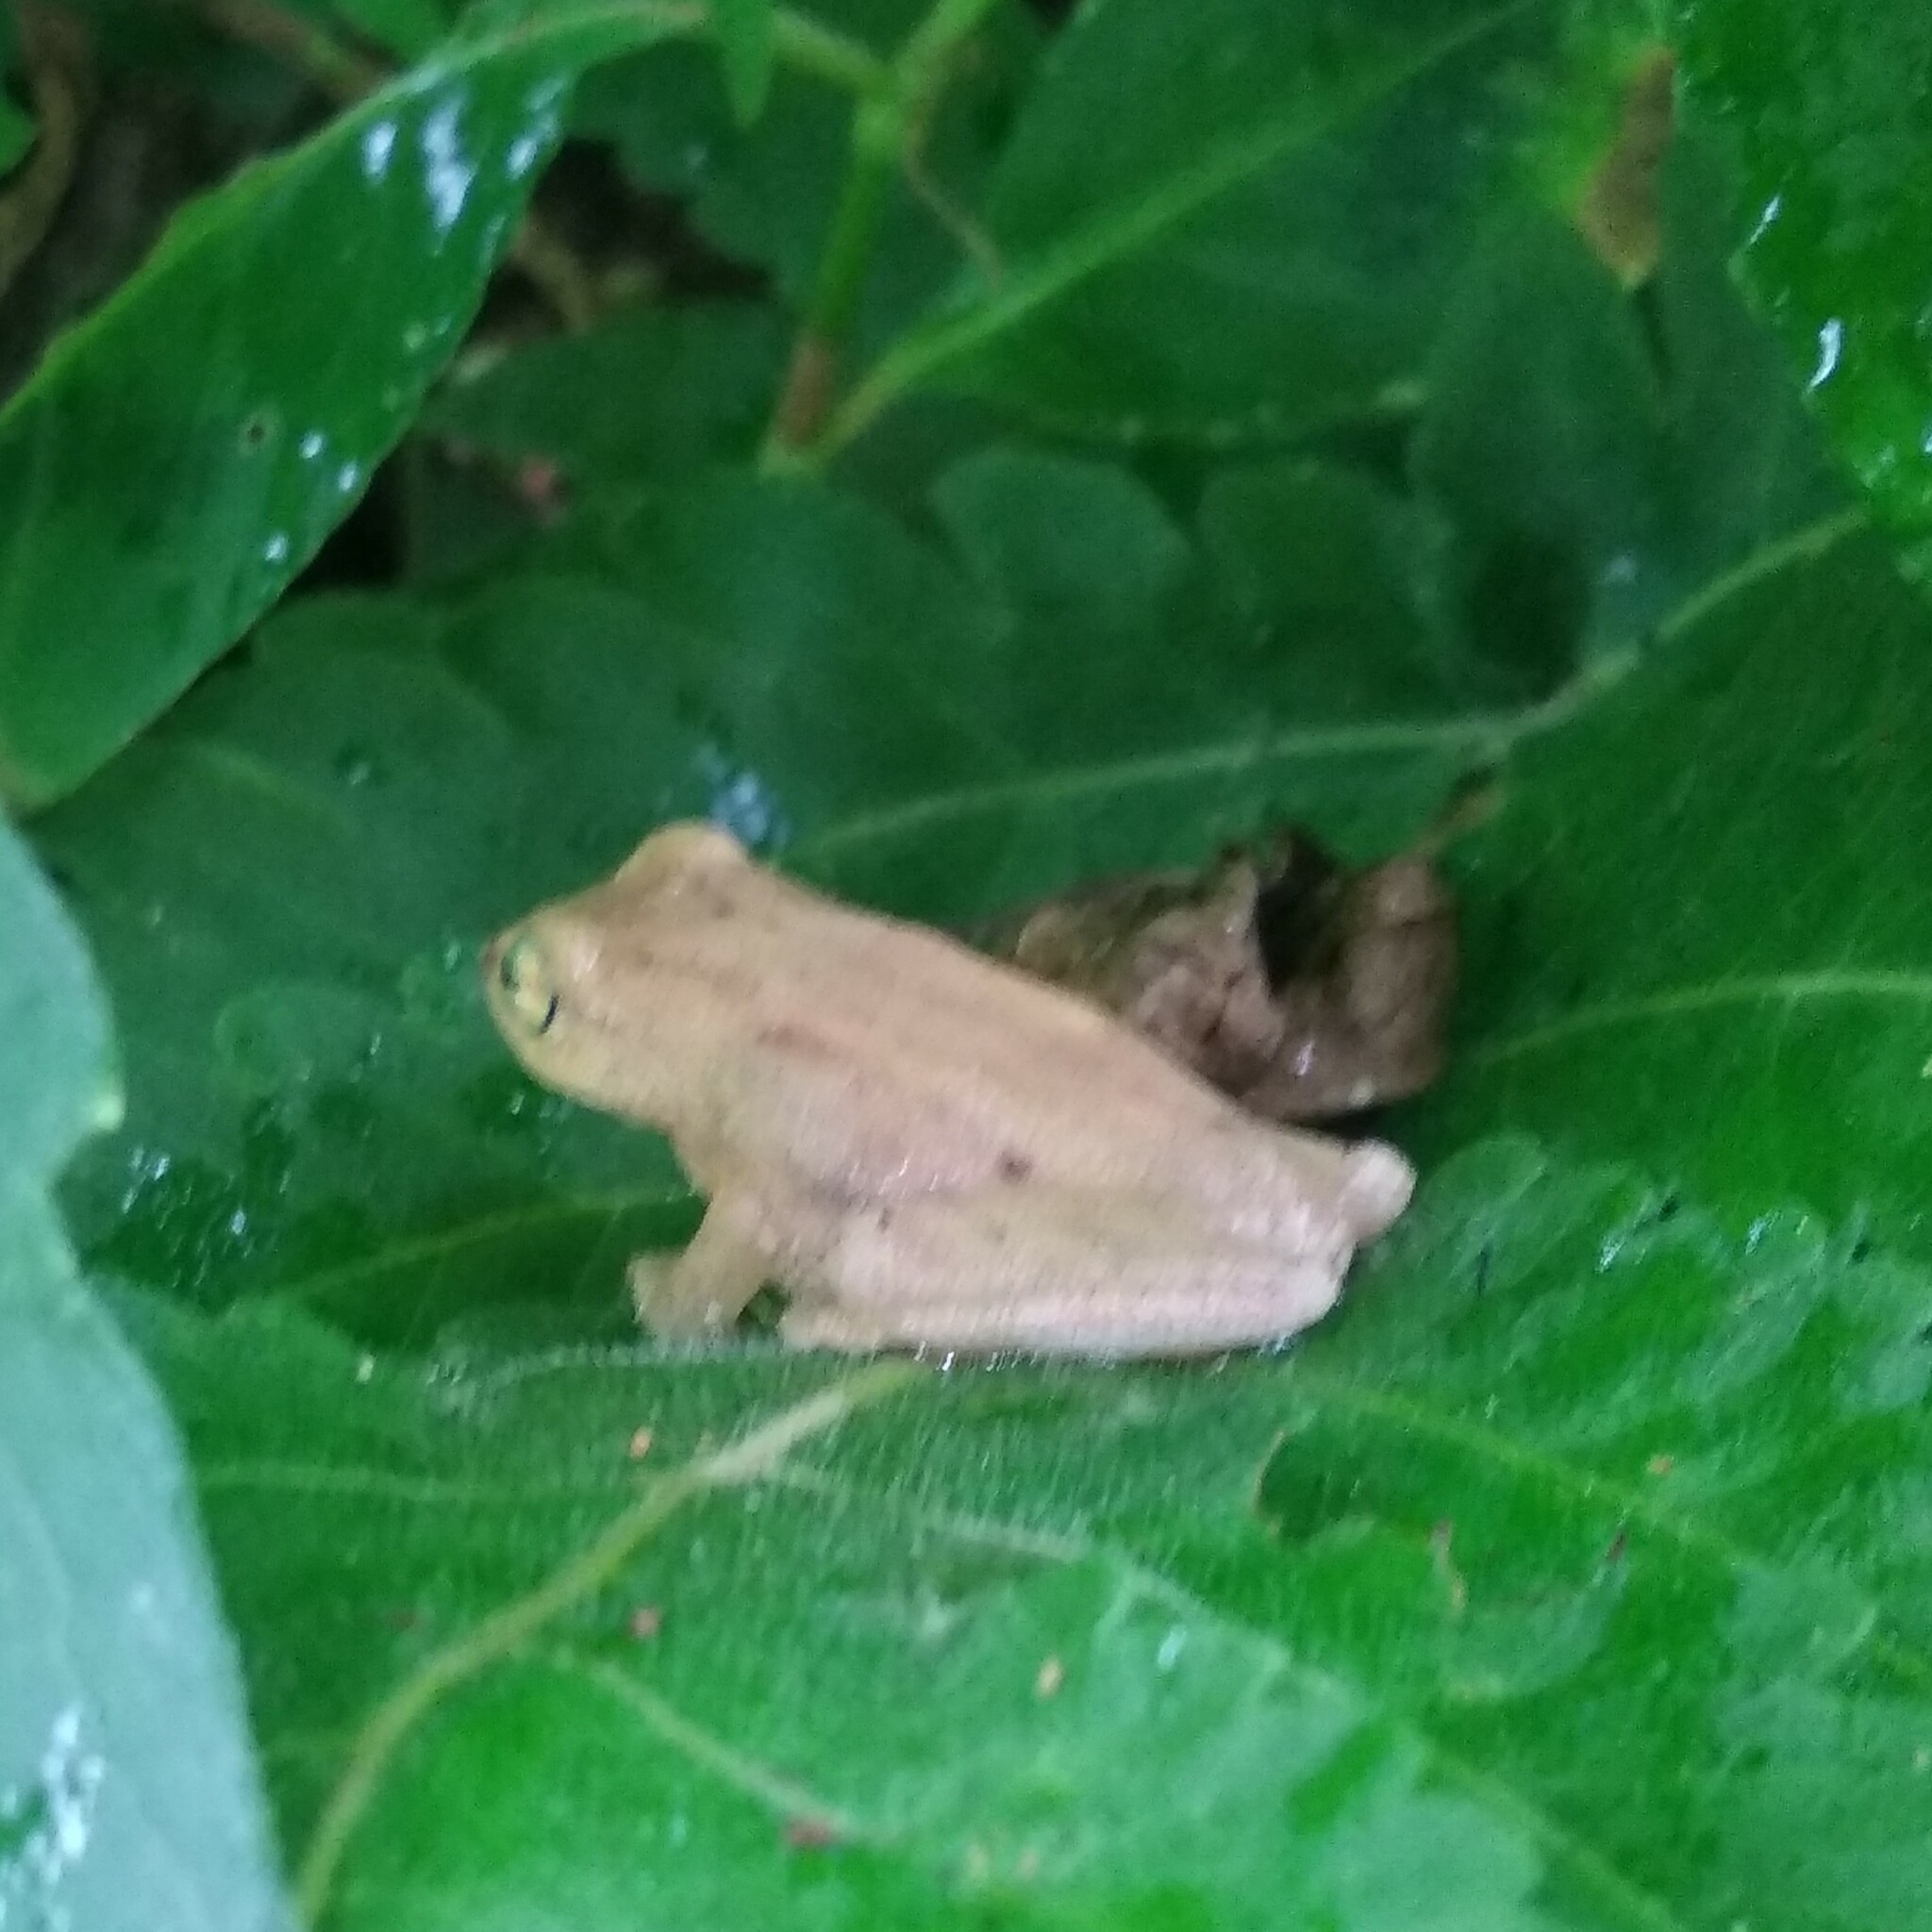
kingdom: Animalia
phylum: Chordata
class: Amphibia
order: Anura
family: Rhacophoridae
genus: Raorchestes
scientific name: Raorchestes luteolus
